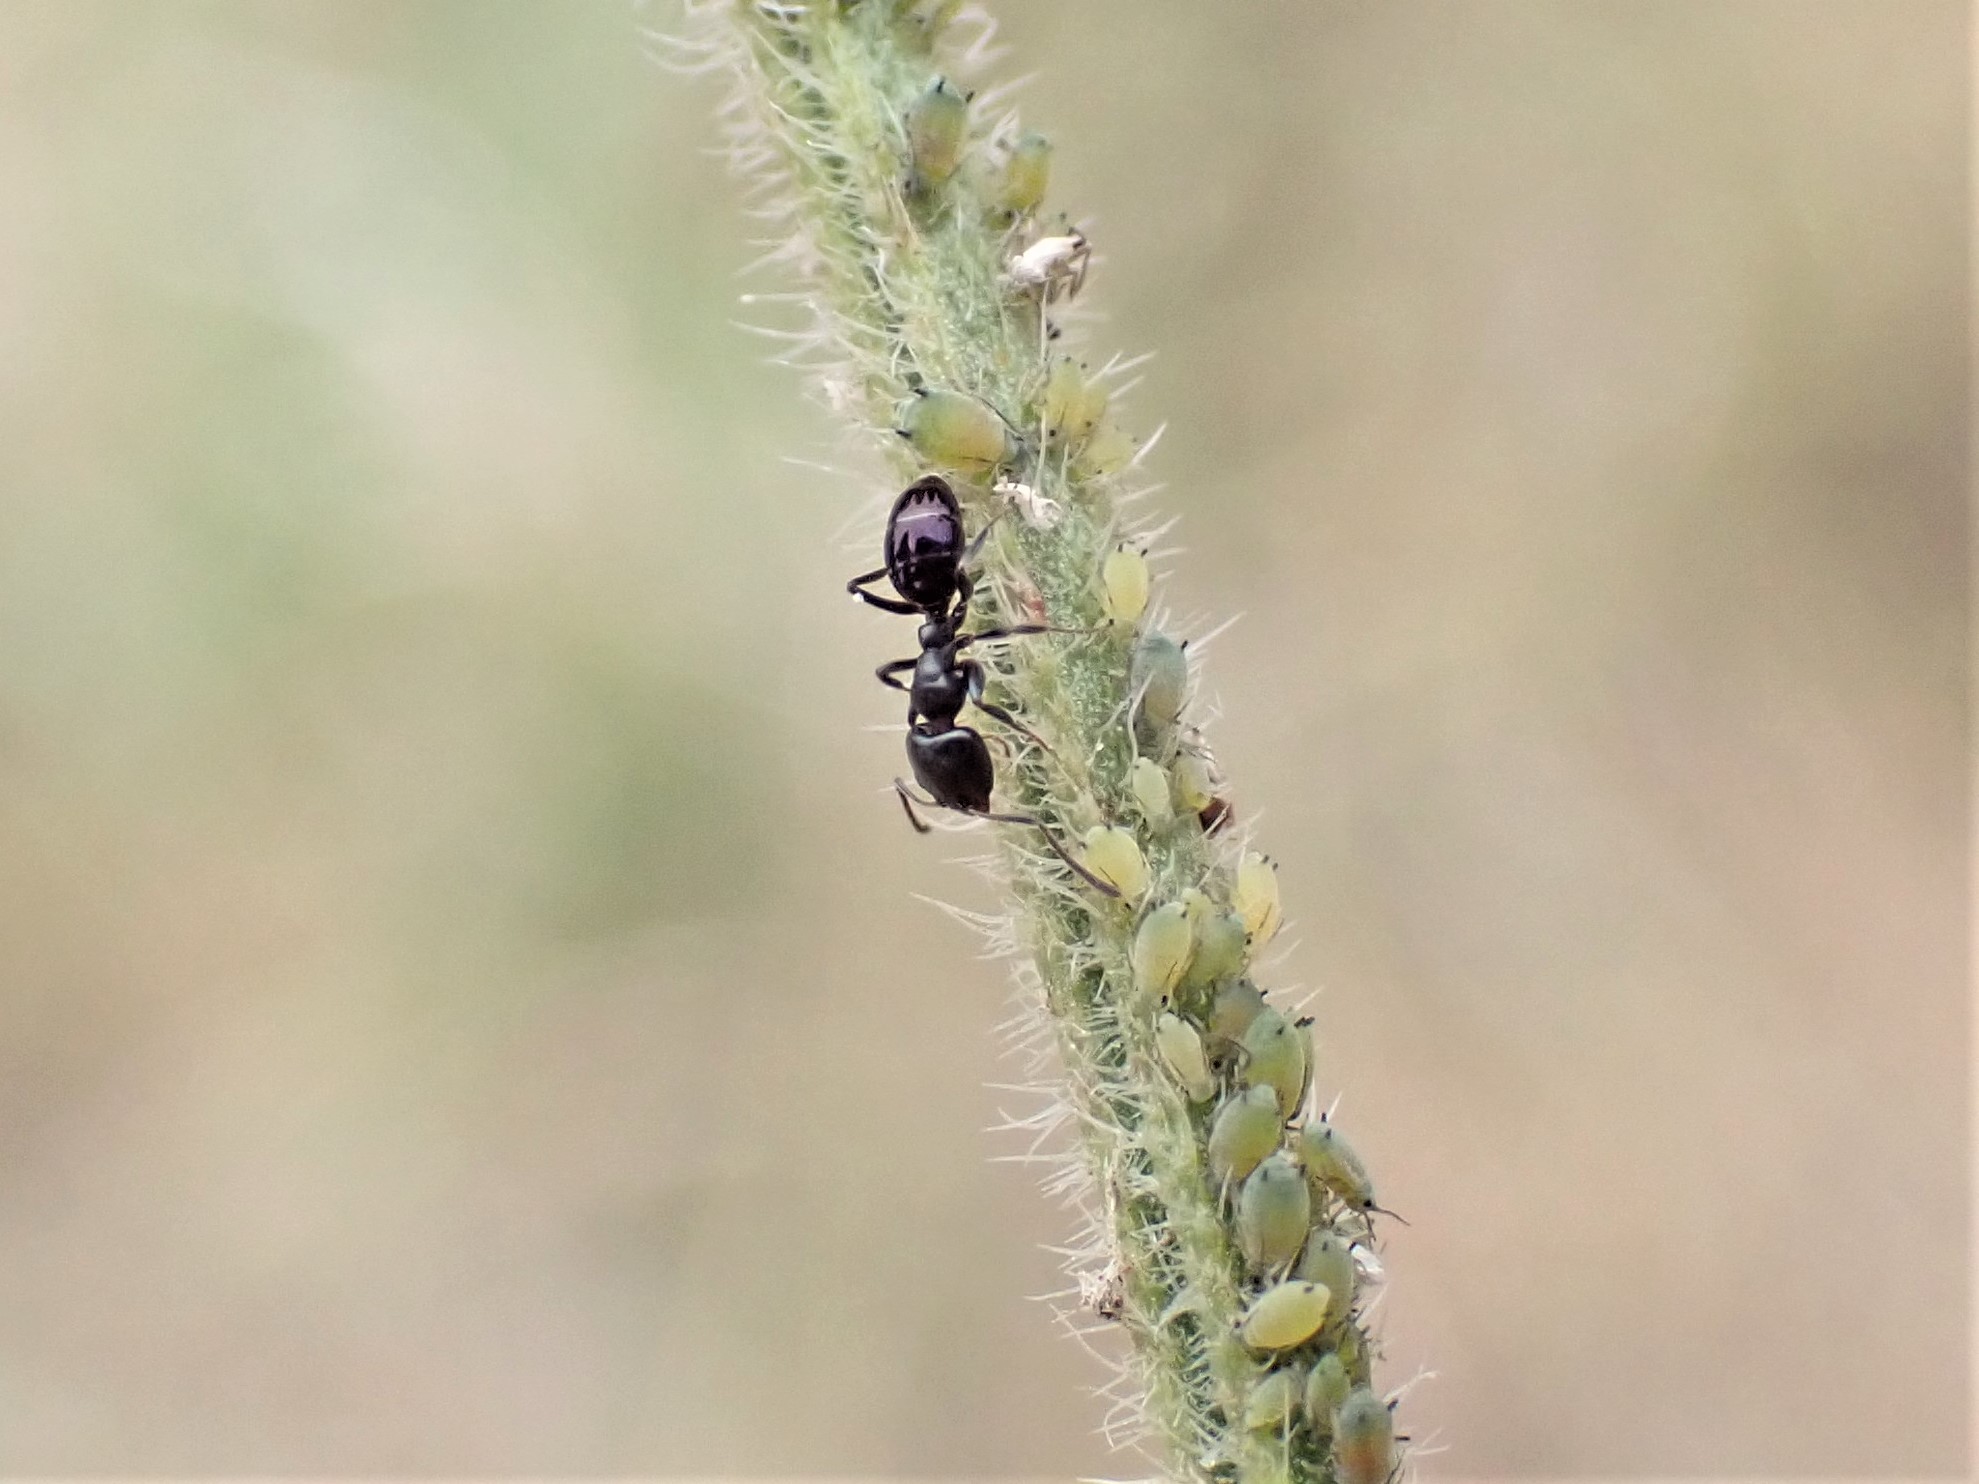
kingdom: Animalia
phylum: Arthropoda
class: Insecta
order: Hymenoptera
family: Formicidae
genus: Ochetellus
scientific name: Ochetellus glaber
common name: Ant
